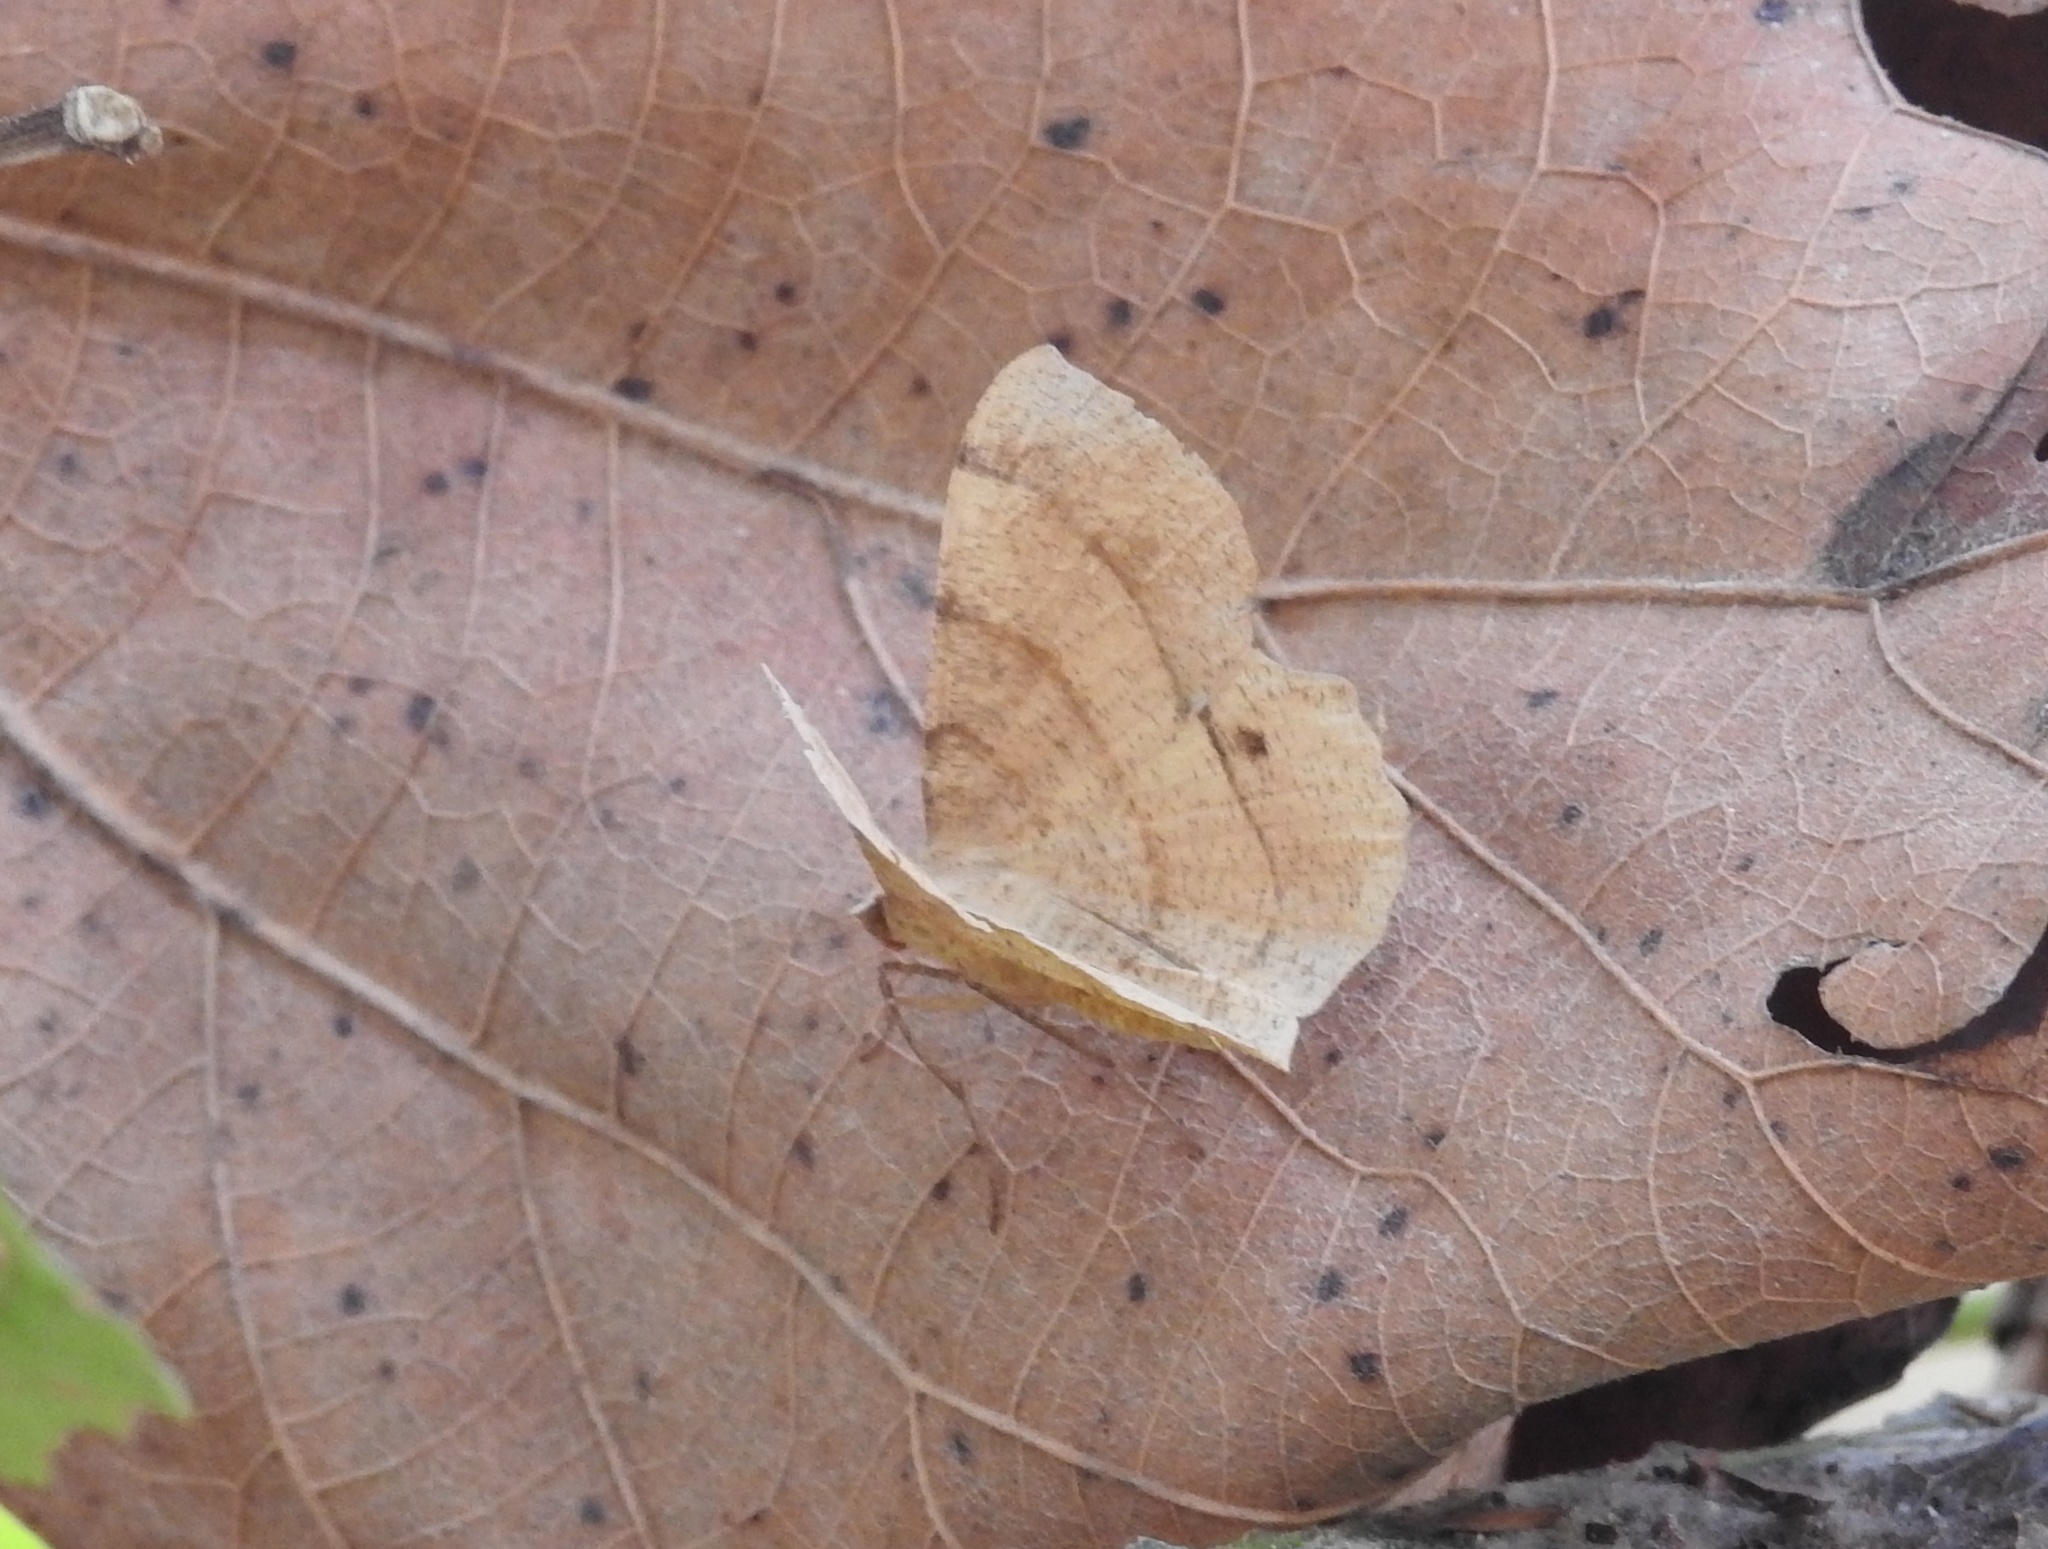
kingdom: Animalia
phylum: Arthropoda
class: Insecta
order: Lepidoptera
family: Geometridae
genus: Hyperythra
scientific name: Hyperythra lutea
